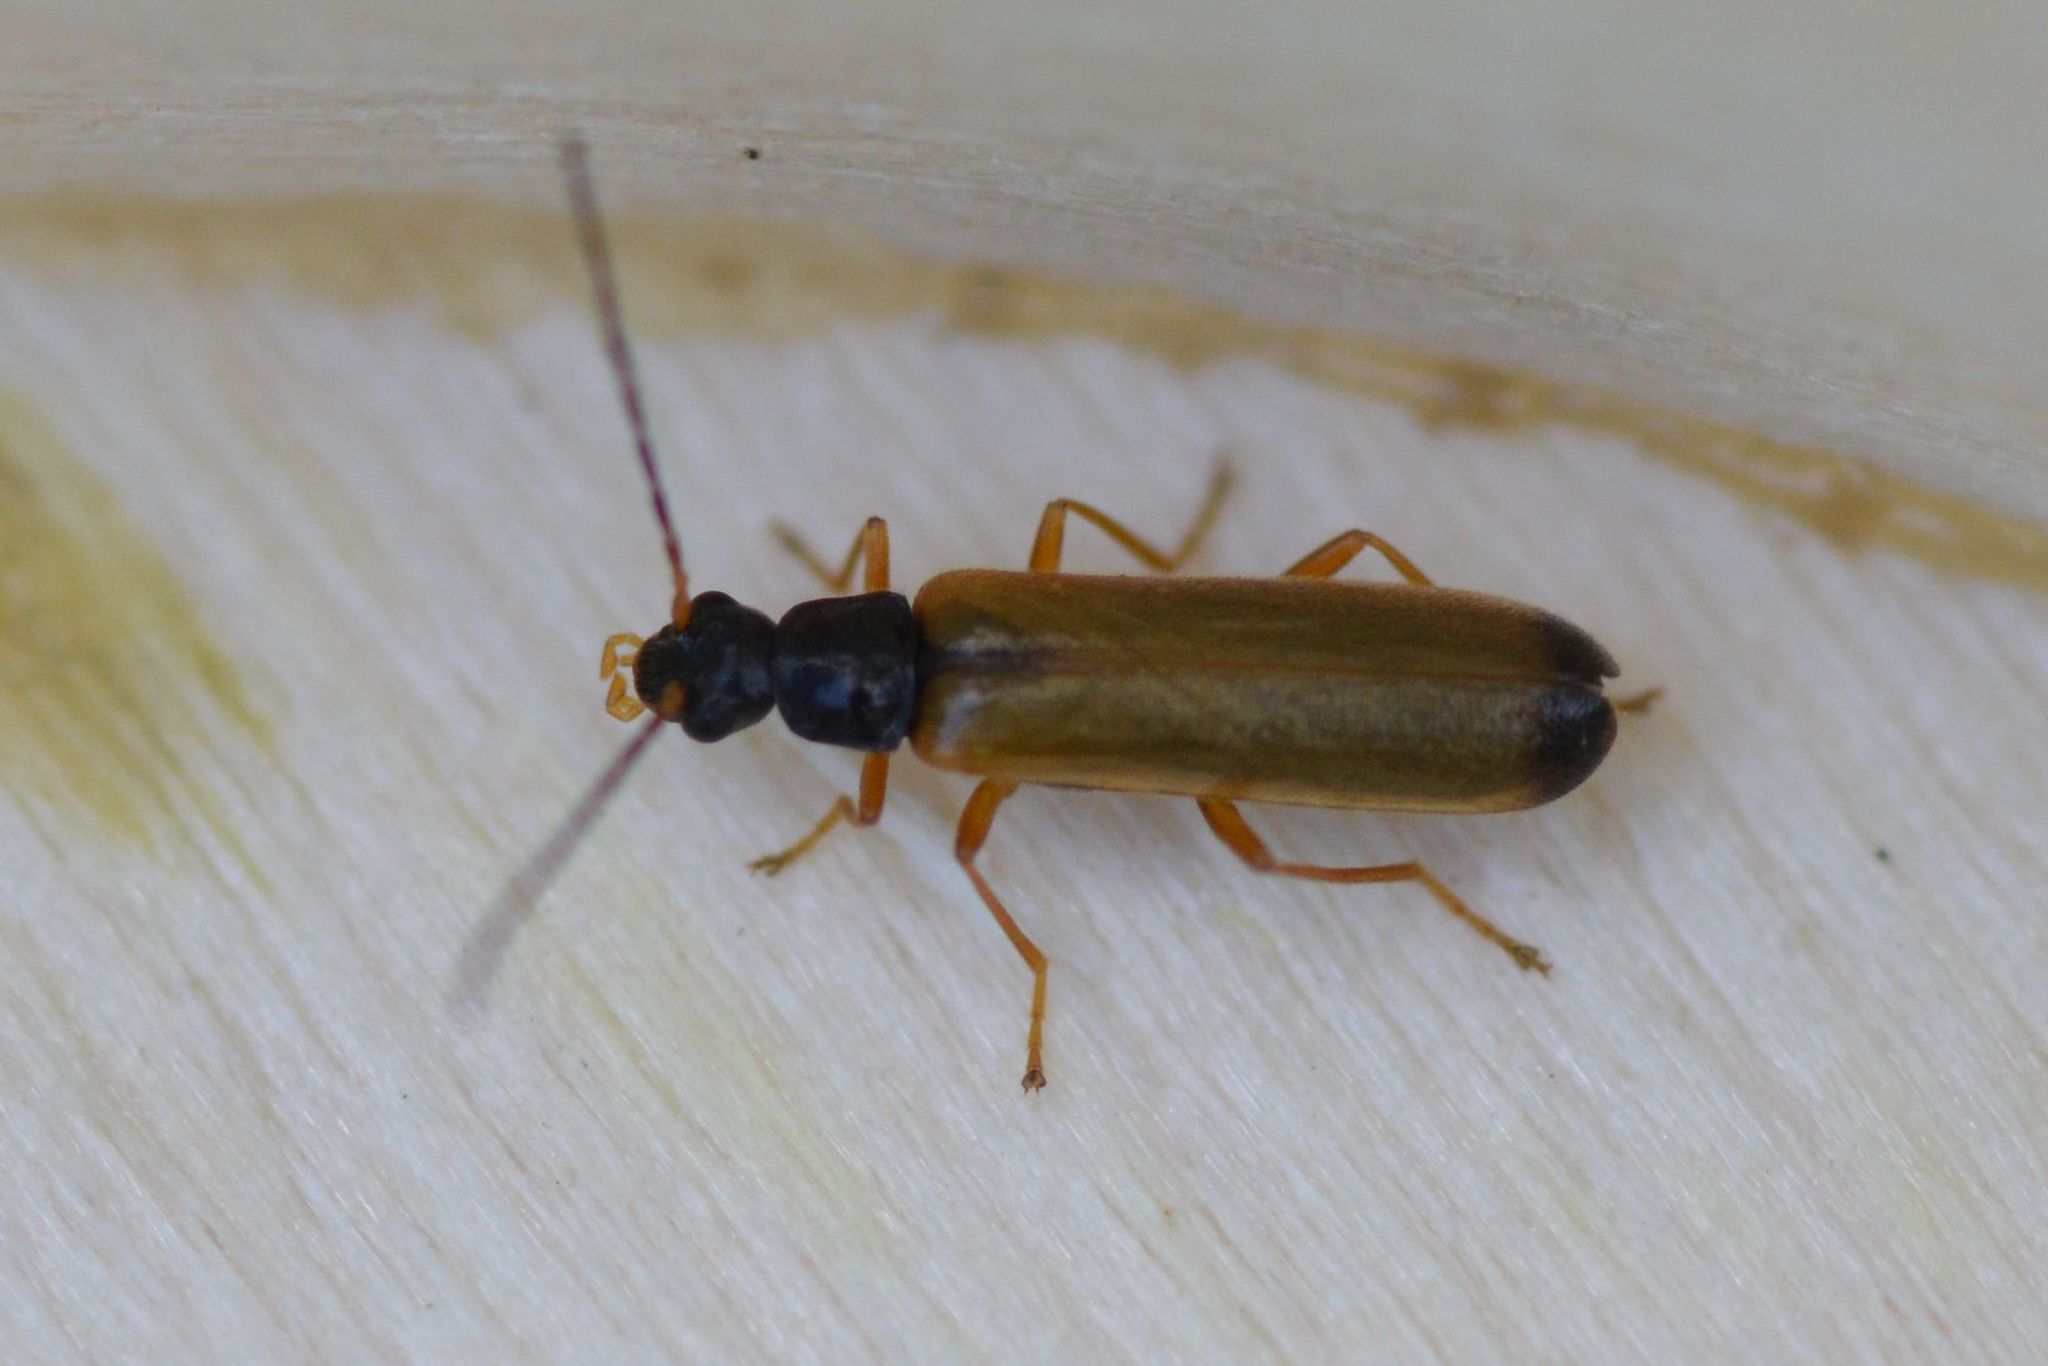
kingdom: Animalia
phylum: Arthropoda
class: Insecta
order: Coleoptera
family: Cantharidae
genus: Rhagonycha
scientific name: Rhagonycha lignosa
